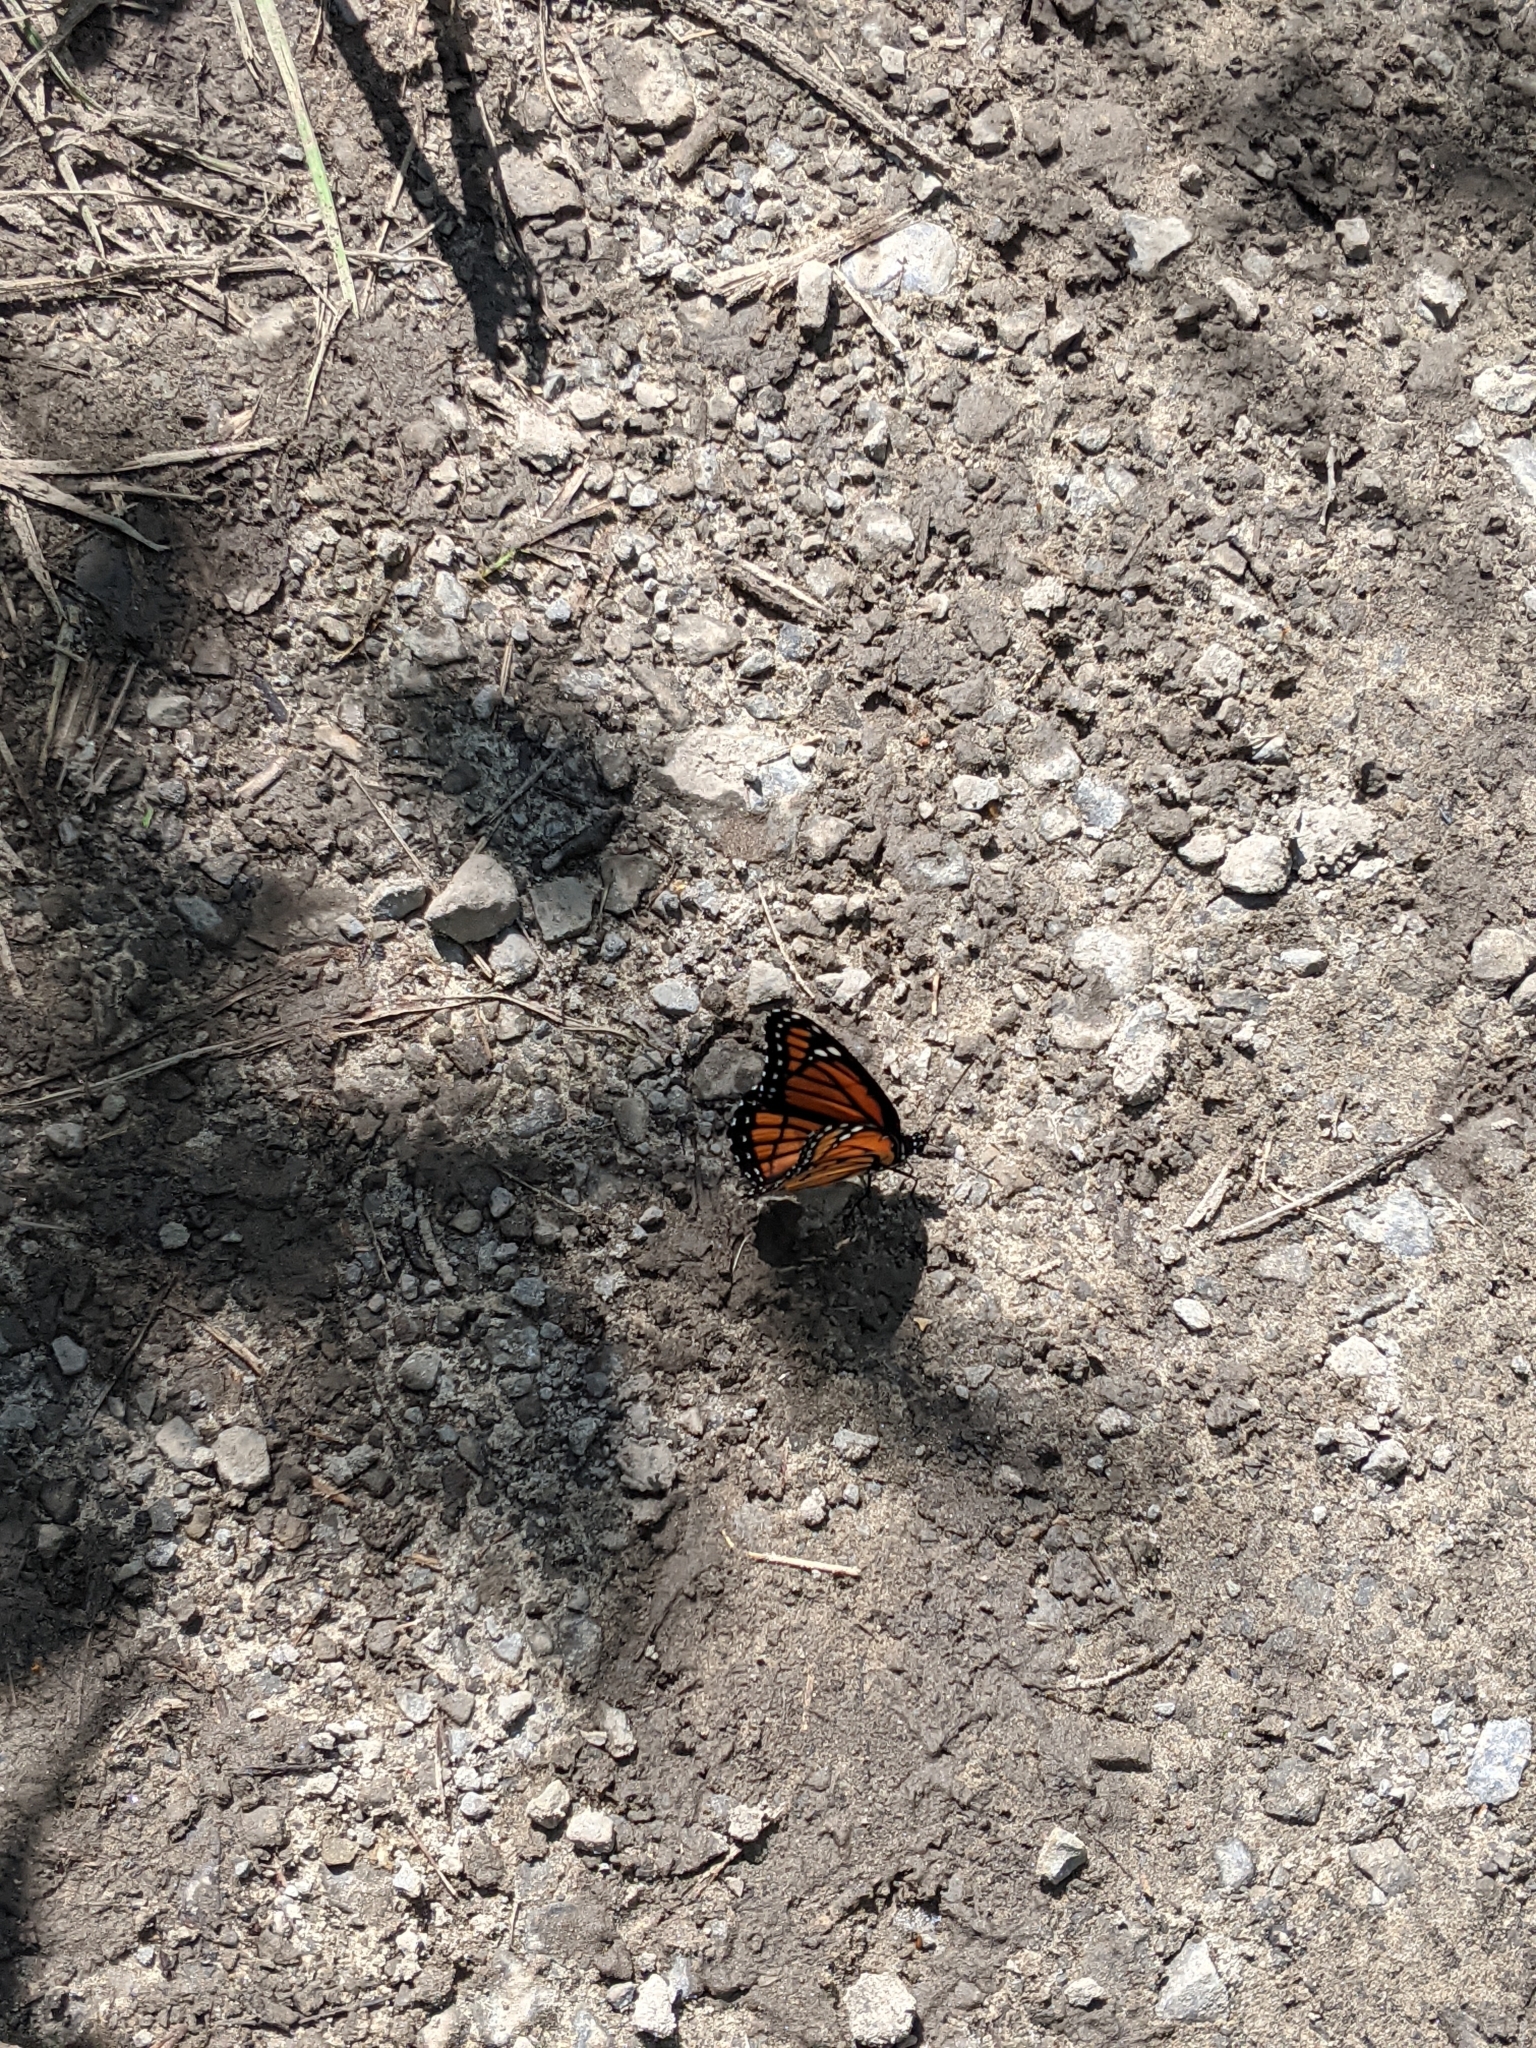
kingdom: Animalia
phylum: Arthropoda
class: Insecta
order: Lepidoptera
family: Nymphalidae
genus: Limenitis
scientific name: Limenitis archippus
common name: Viceroy
